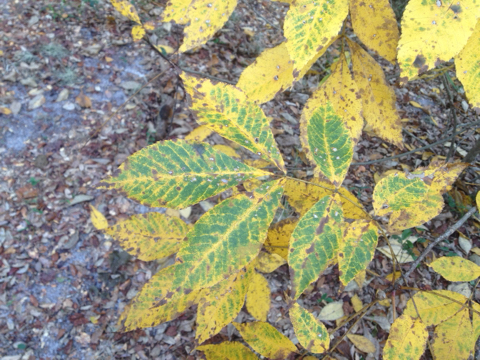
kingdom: Plantae
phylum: Tracheophyta
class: Magnoliopsida
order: Fagales
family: Juglandaceae
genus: Carya
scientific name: Carya glabra
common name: Pignut hickory
